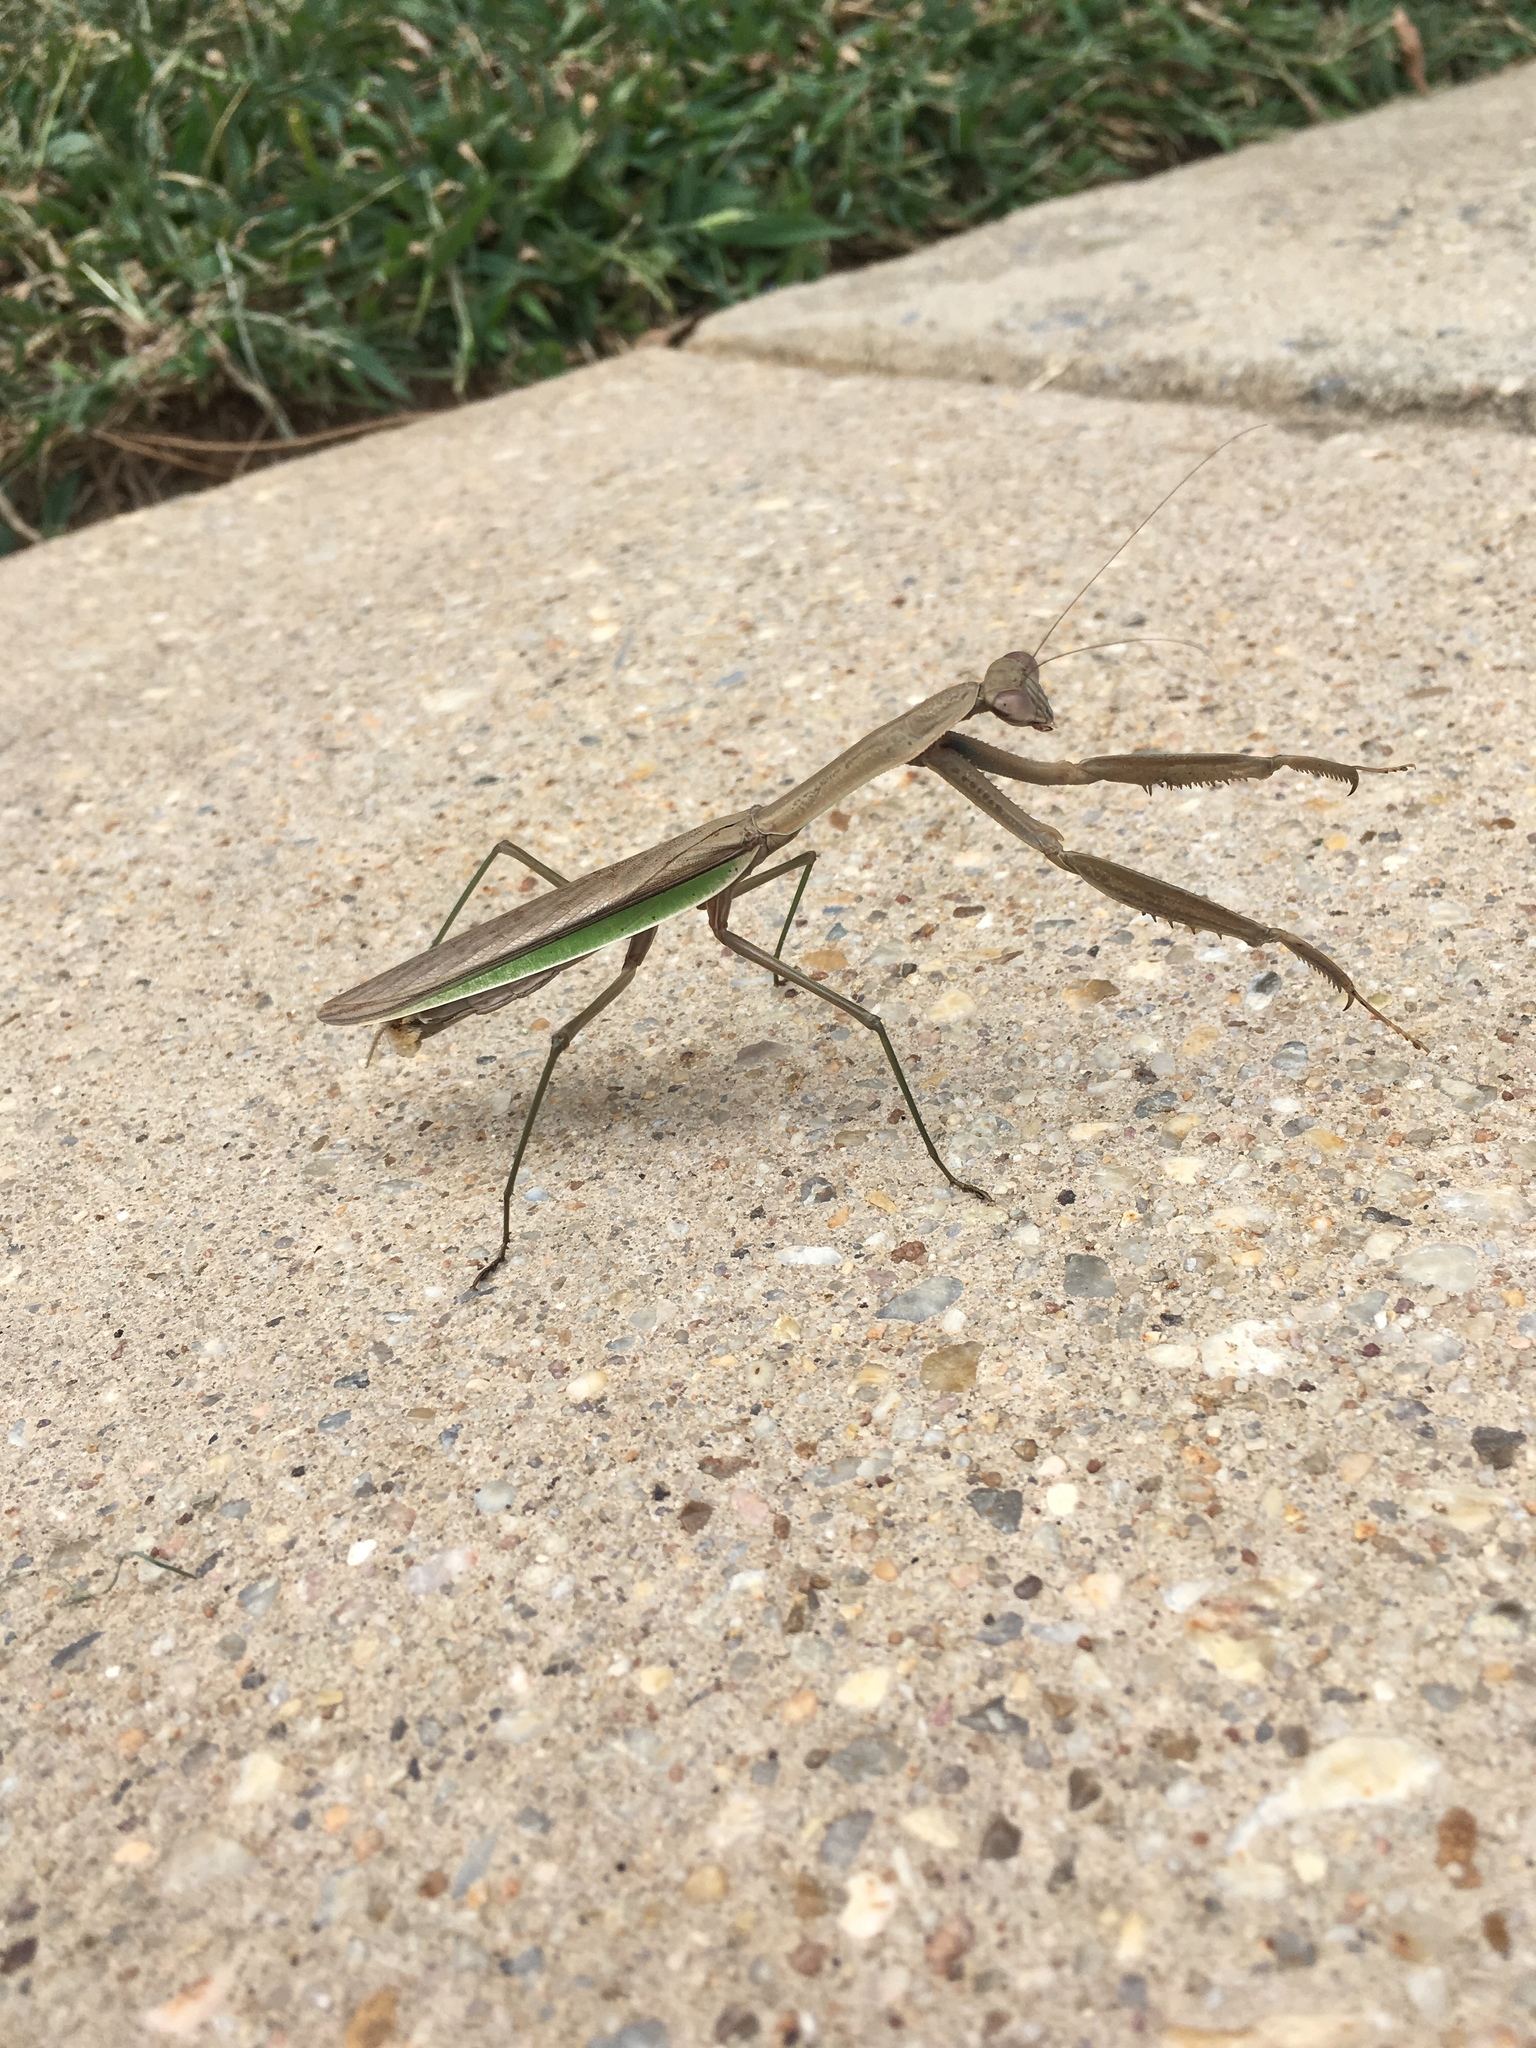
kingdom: Animalia
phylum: Arthropoda
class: Insecta
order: Mantodea
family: Mantidae
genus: Tenodera
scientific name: Tenodera sinensis
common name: Chinese mantis
